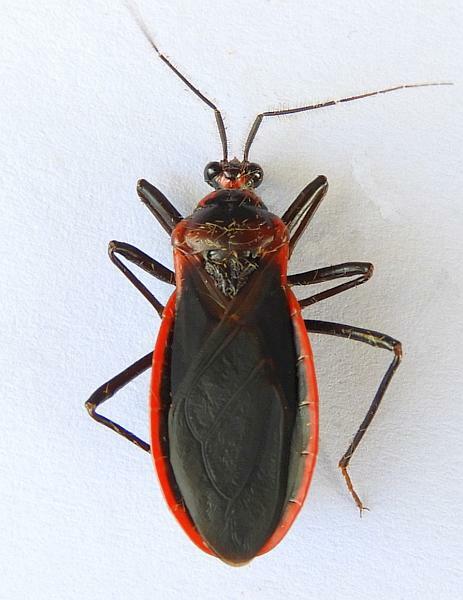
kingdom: Animalia
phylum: Arthropoda
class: Insecta
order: Hemiptera
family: Reduviidae
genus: Rhiginia
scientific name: Rhiginia cinctiventris
